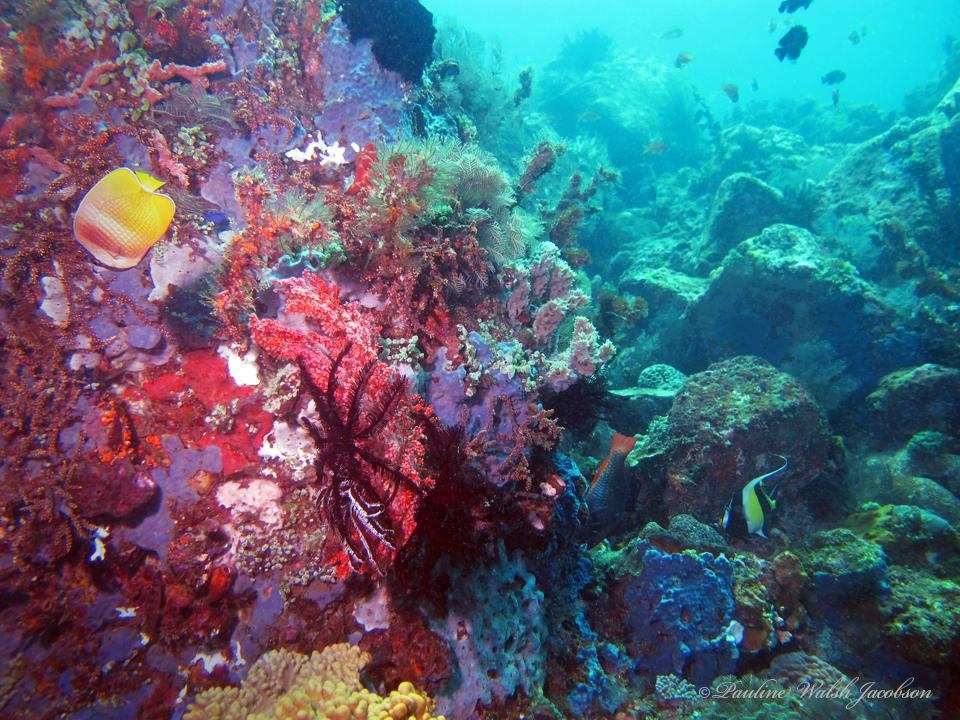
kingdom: Animalia
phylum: Chordata
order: Perciformes
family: Chaetodontidae
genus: Chaetodon
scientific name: Chaetodon kleinii
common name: Klein's butterflyfish
